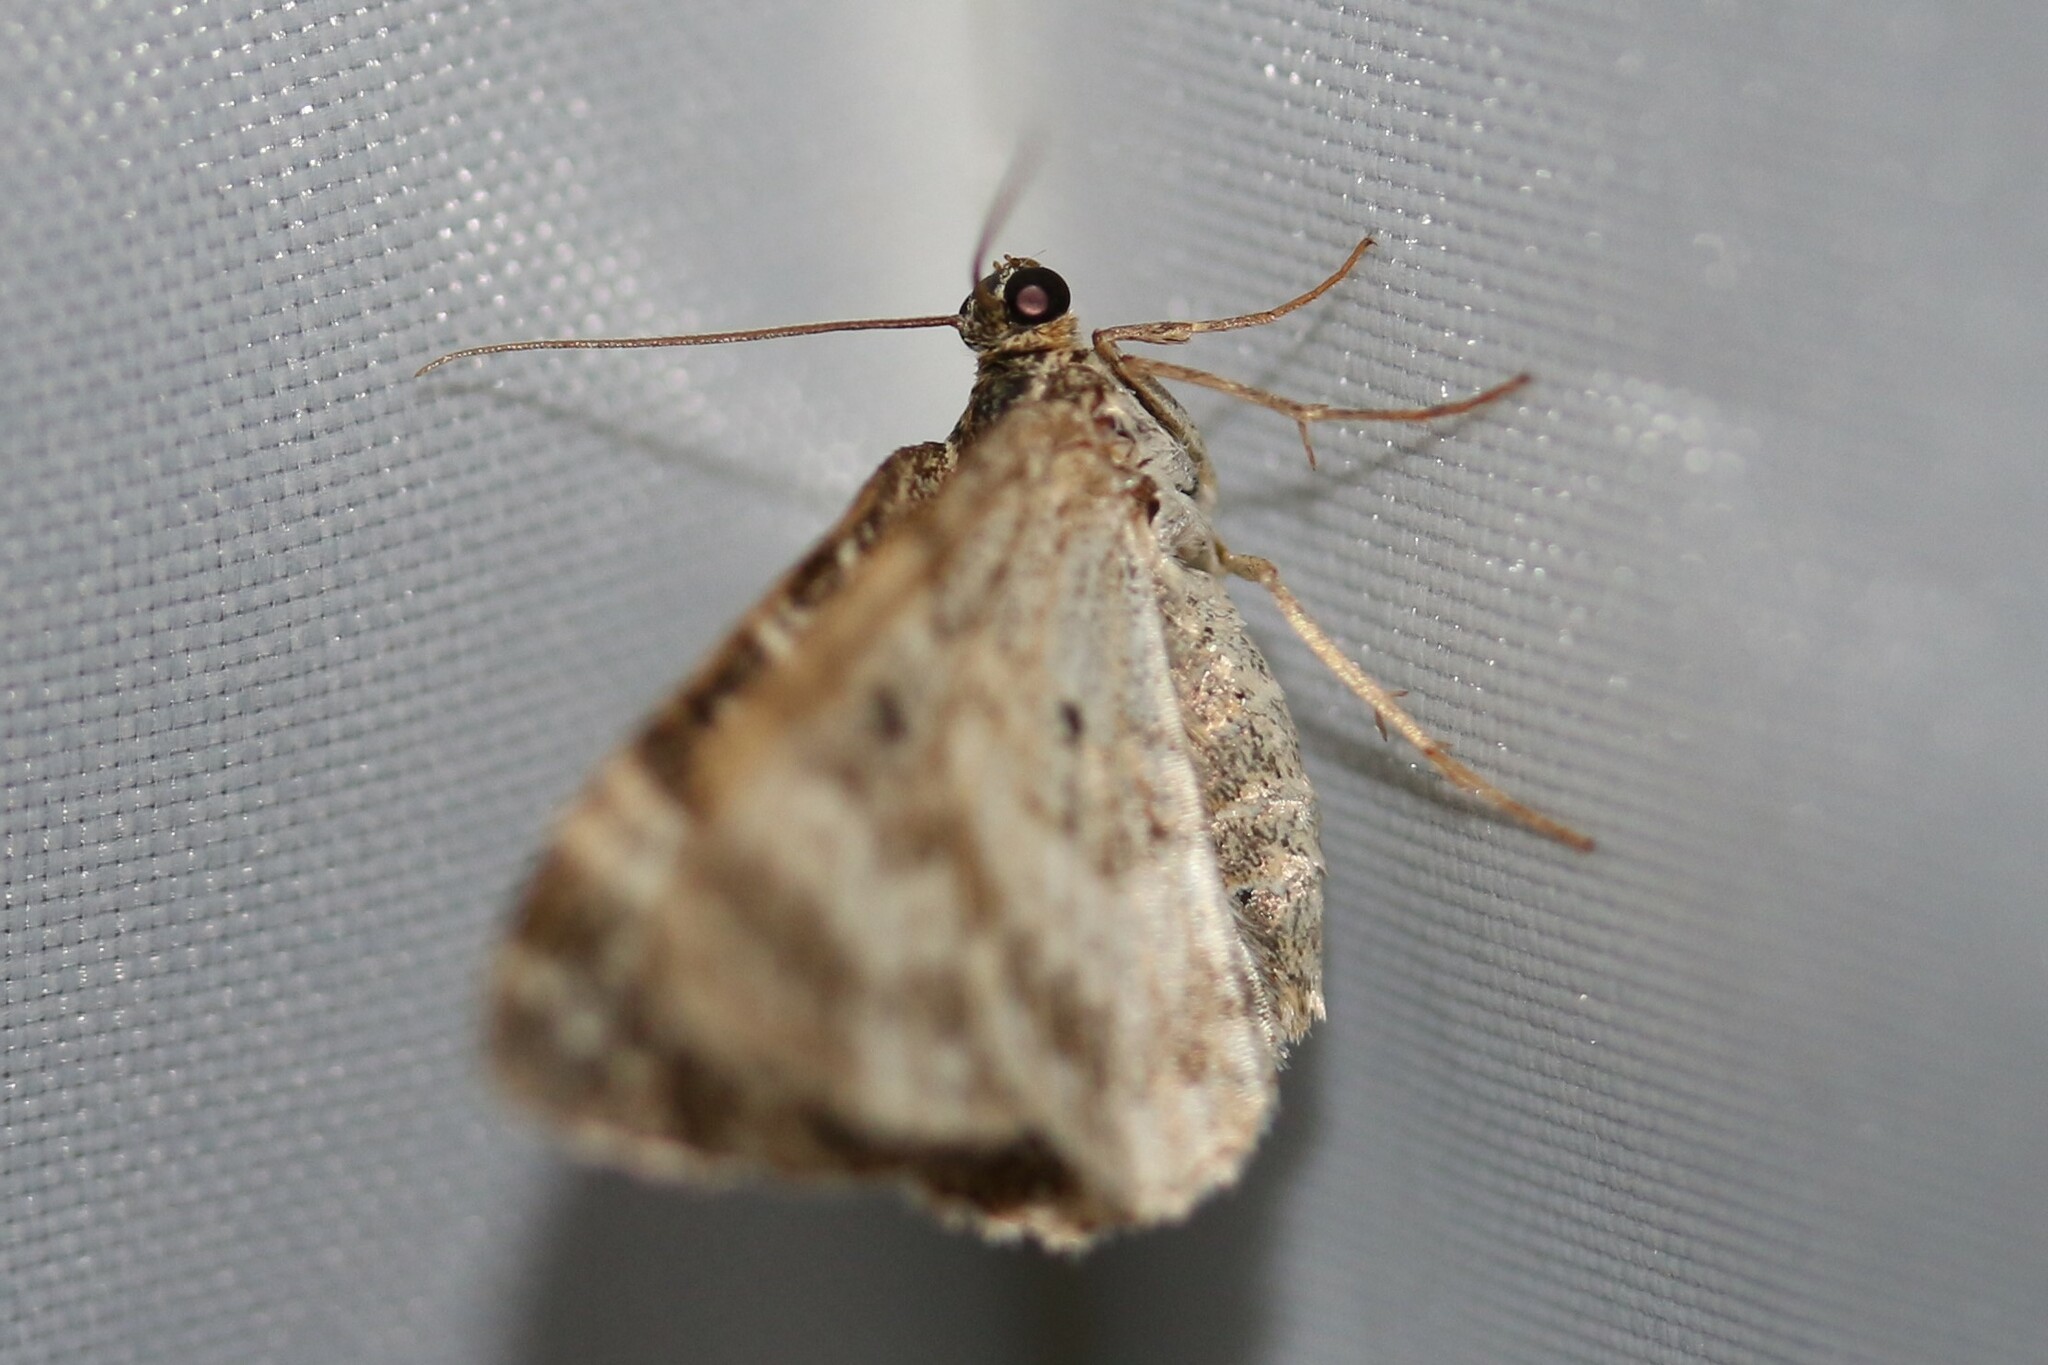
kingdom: Animalia
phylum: Arthropoda
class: Insecta
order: Lepidoptera
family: Geometridae
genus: Epirrhoe
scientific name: Epirrhoe alternata
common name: Common carpet
